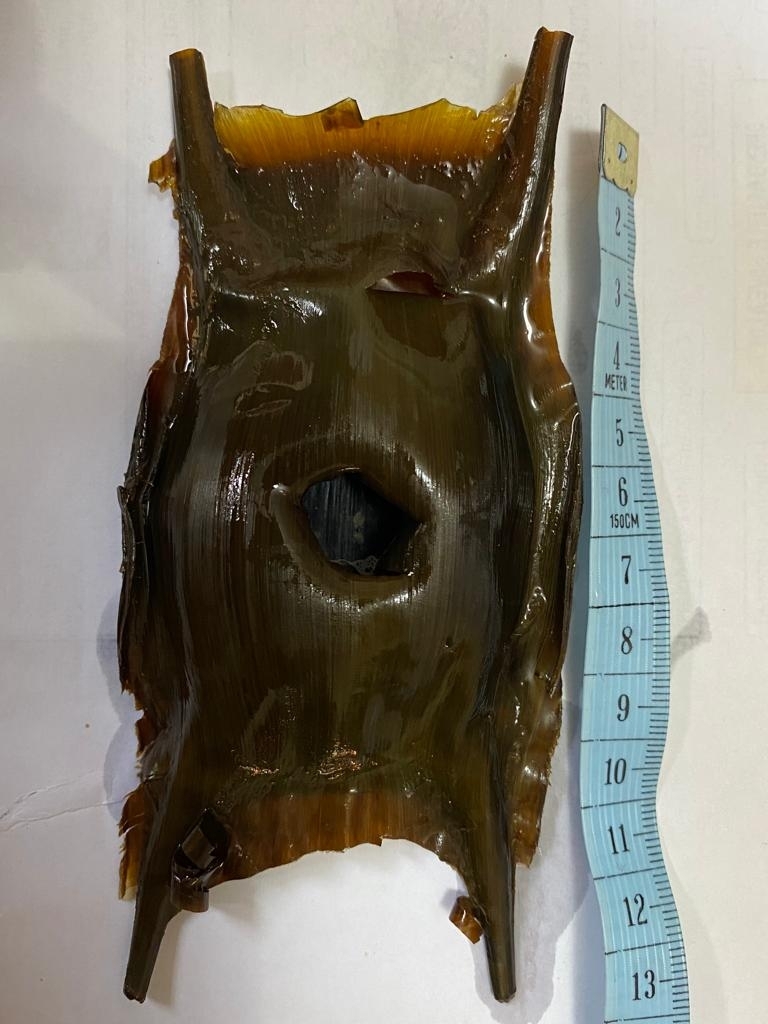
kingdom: Animalia
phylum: Chordata
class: Elasmobranchii
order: Rajiformes
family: Rajidae
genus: Raja
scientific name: Raja brachyura
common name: Blonde ray
